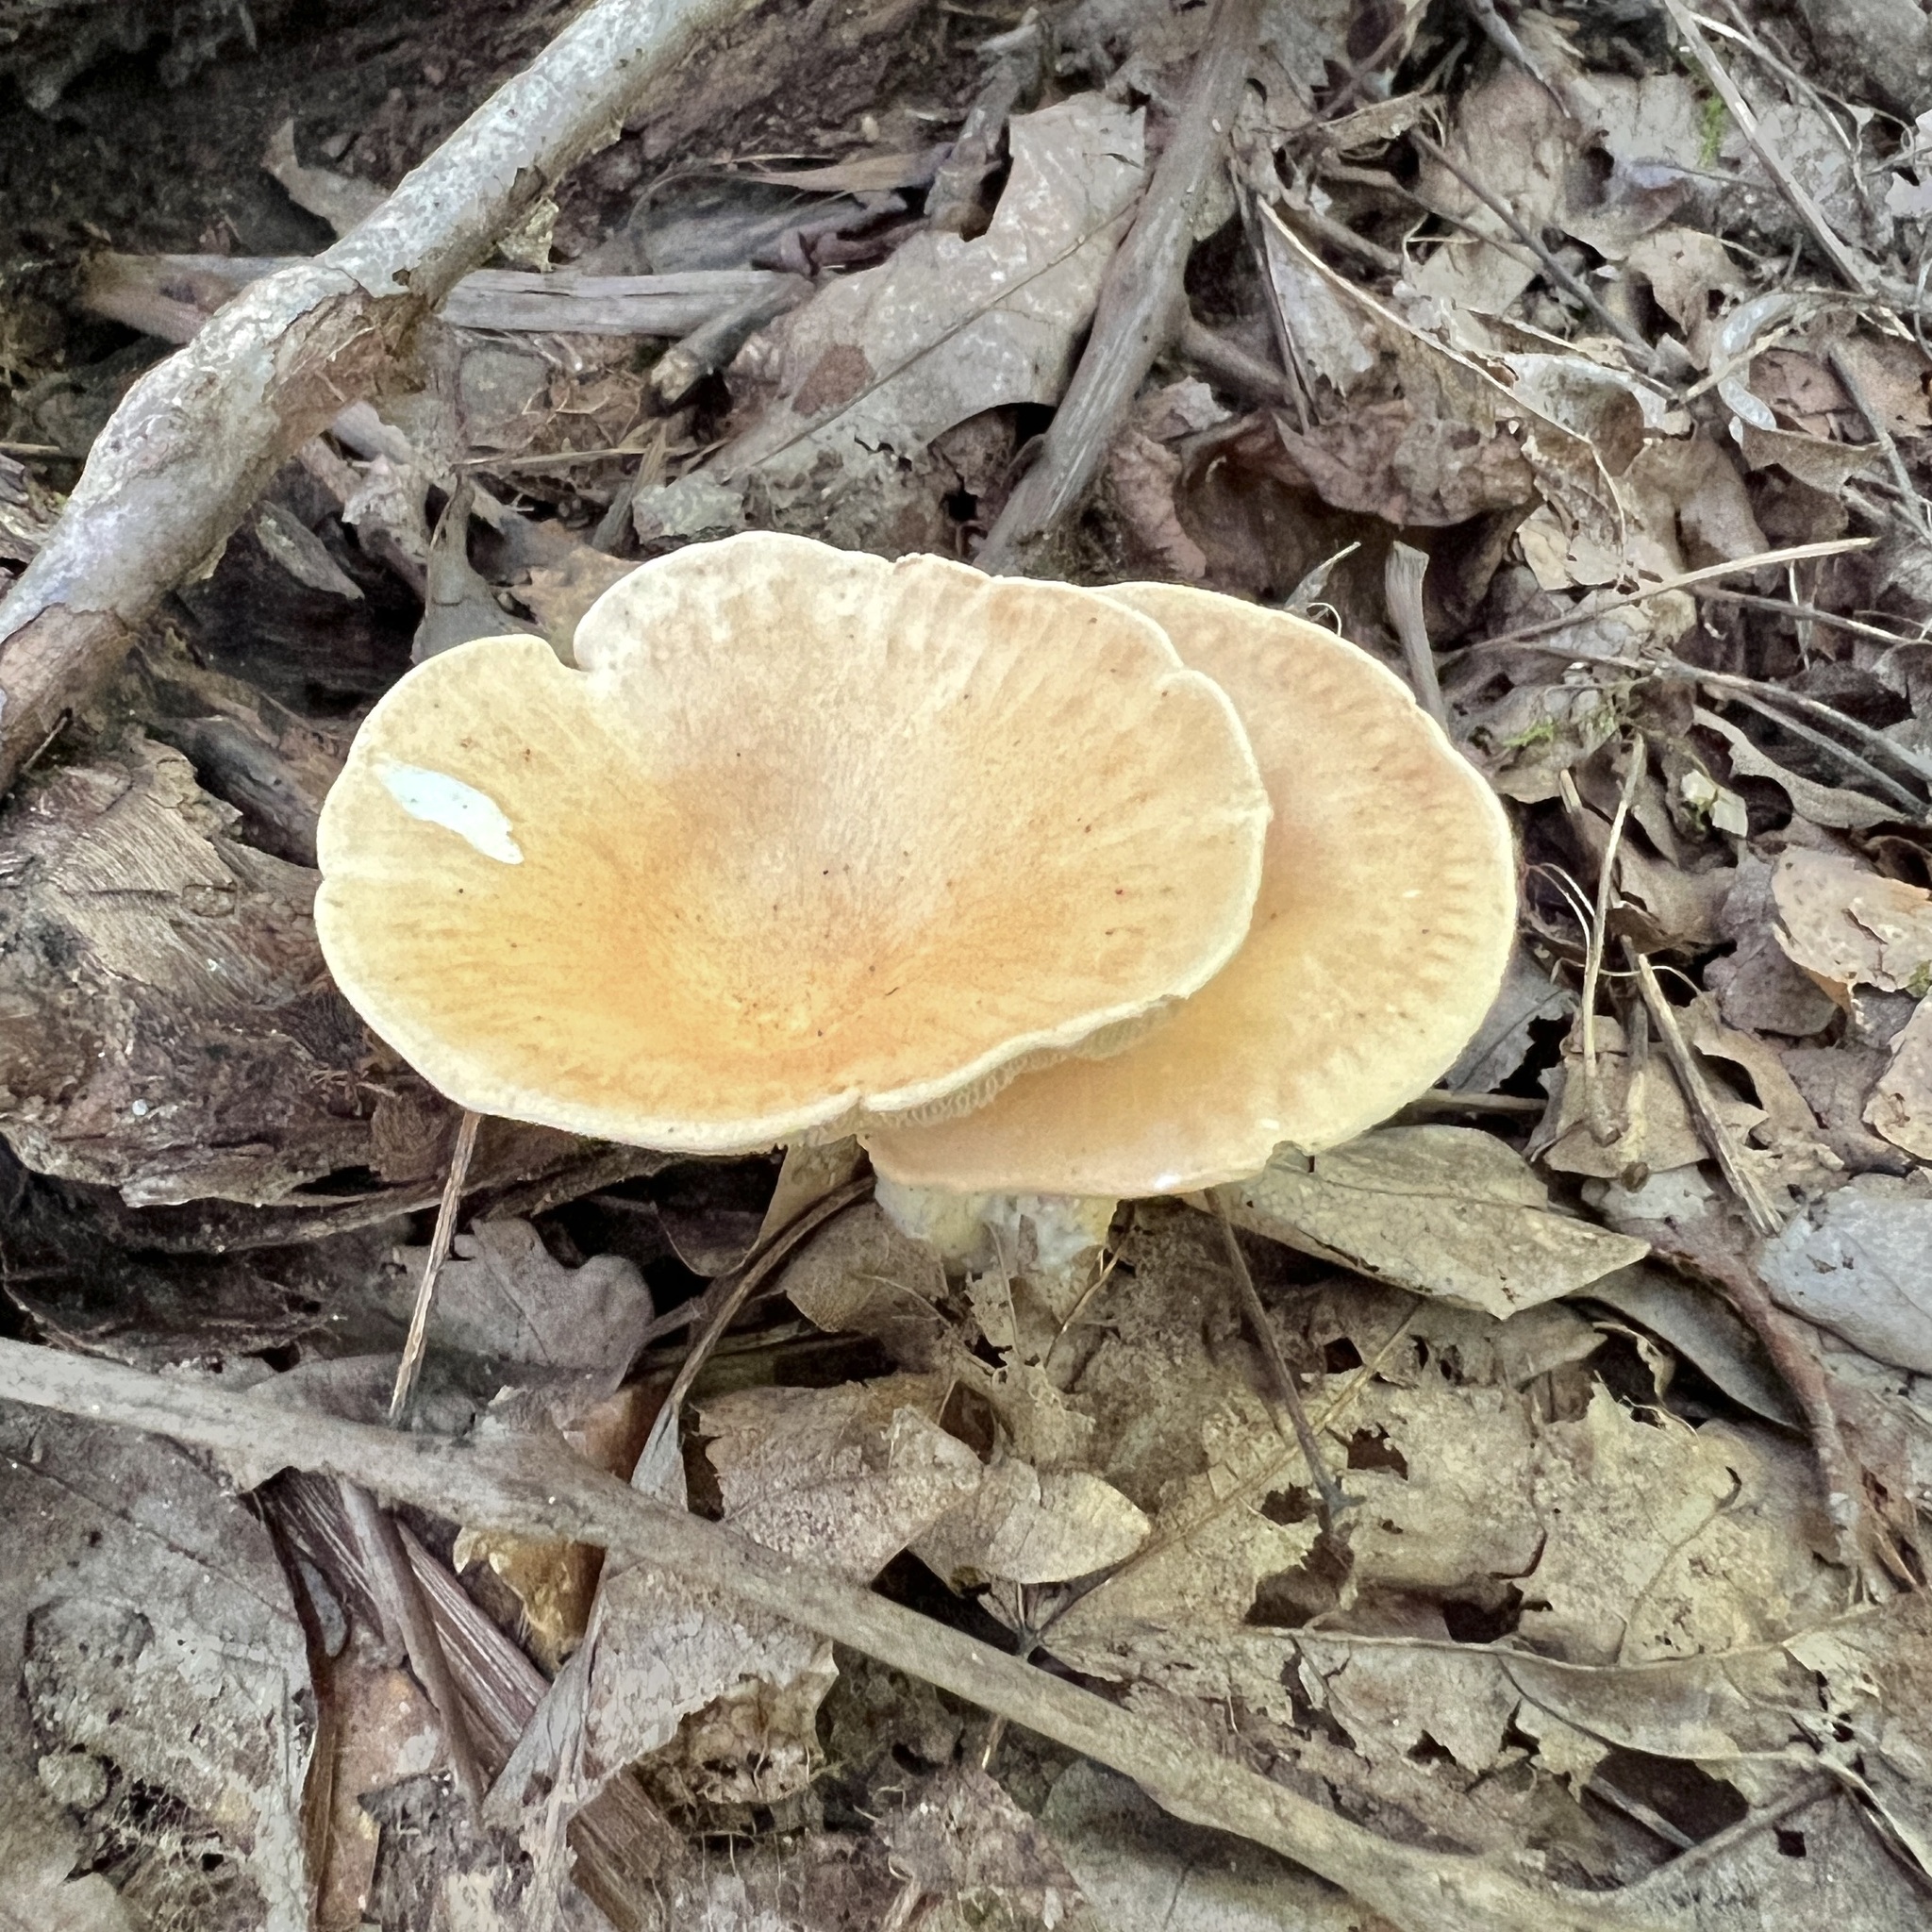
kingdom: Fungi
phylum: Basidiomycota
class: Agaricomycetes
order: Agaricales
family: Tricholomataceae
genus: Infundibulicybe
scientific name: Infundibulicybe gibba
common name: Common funnel
